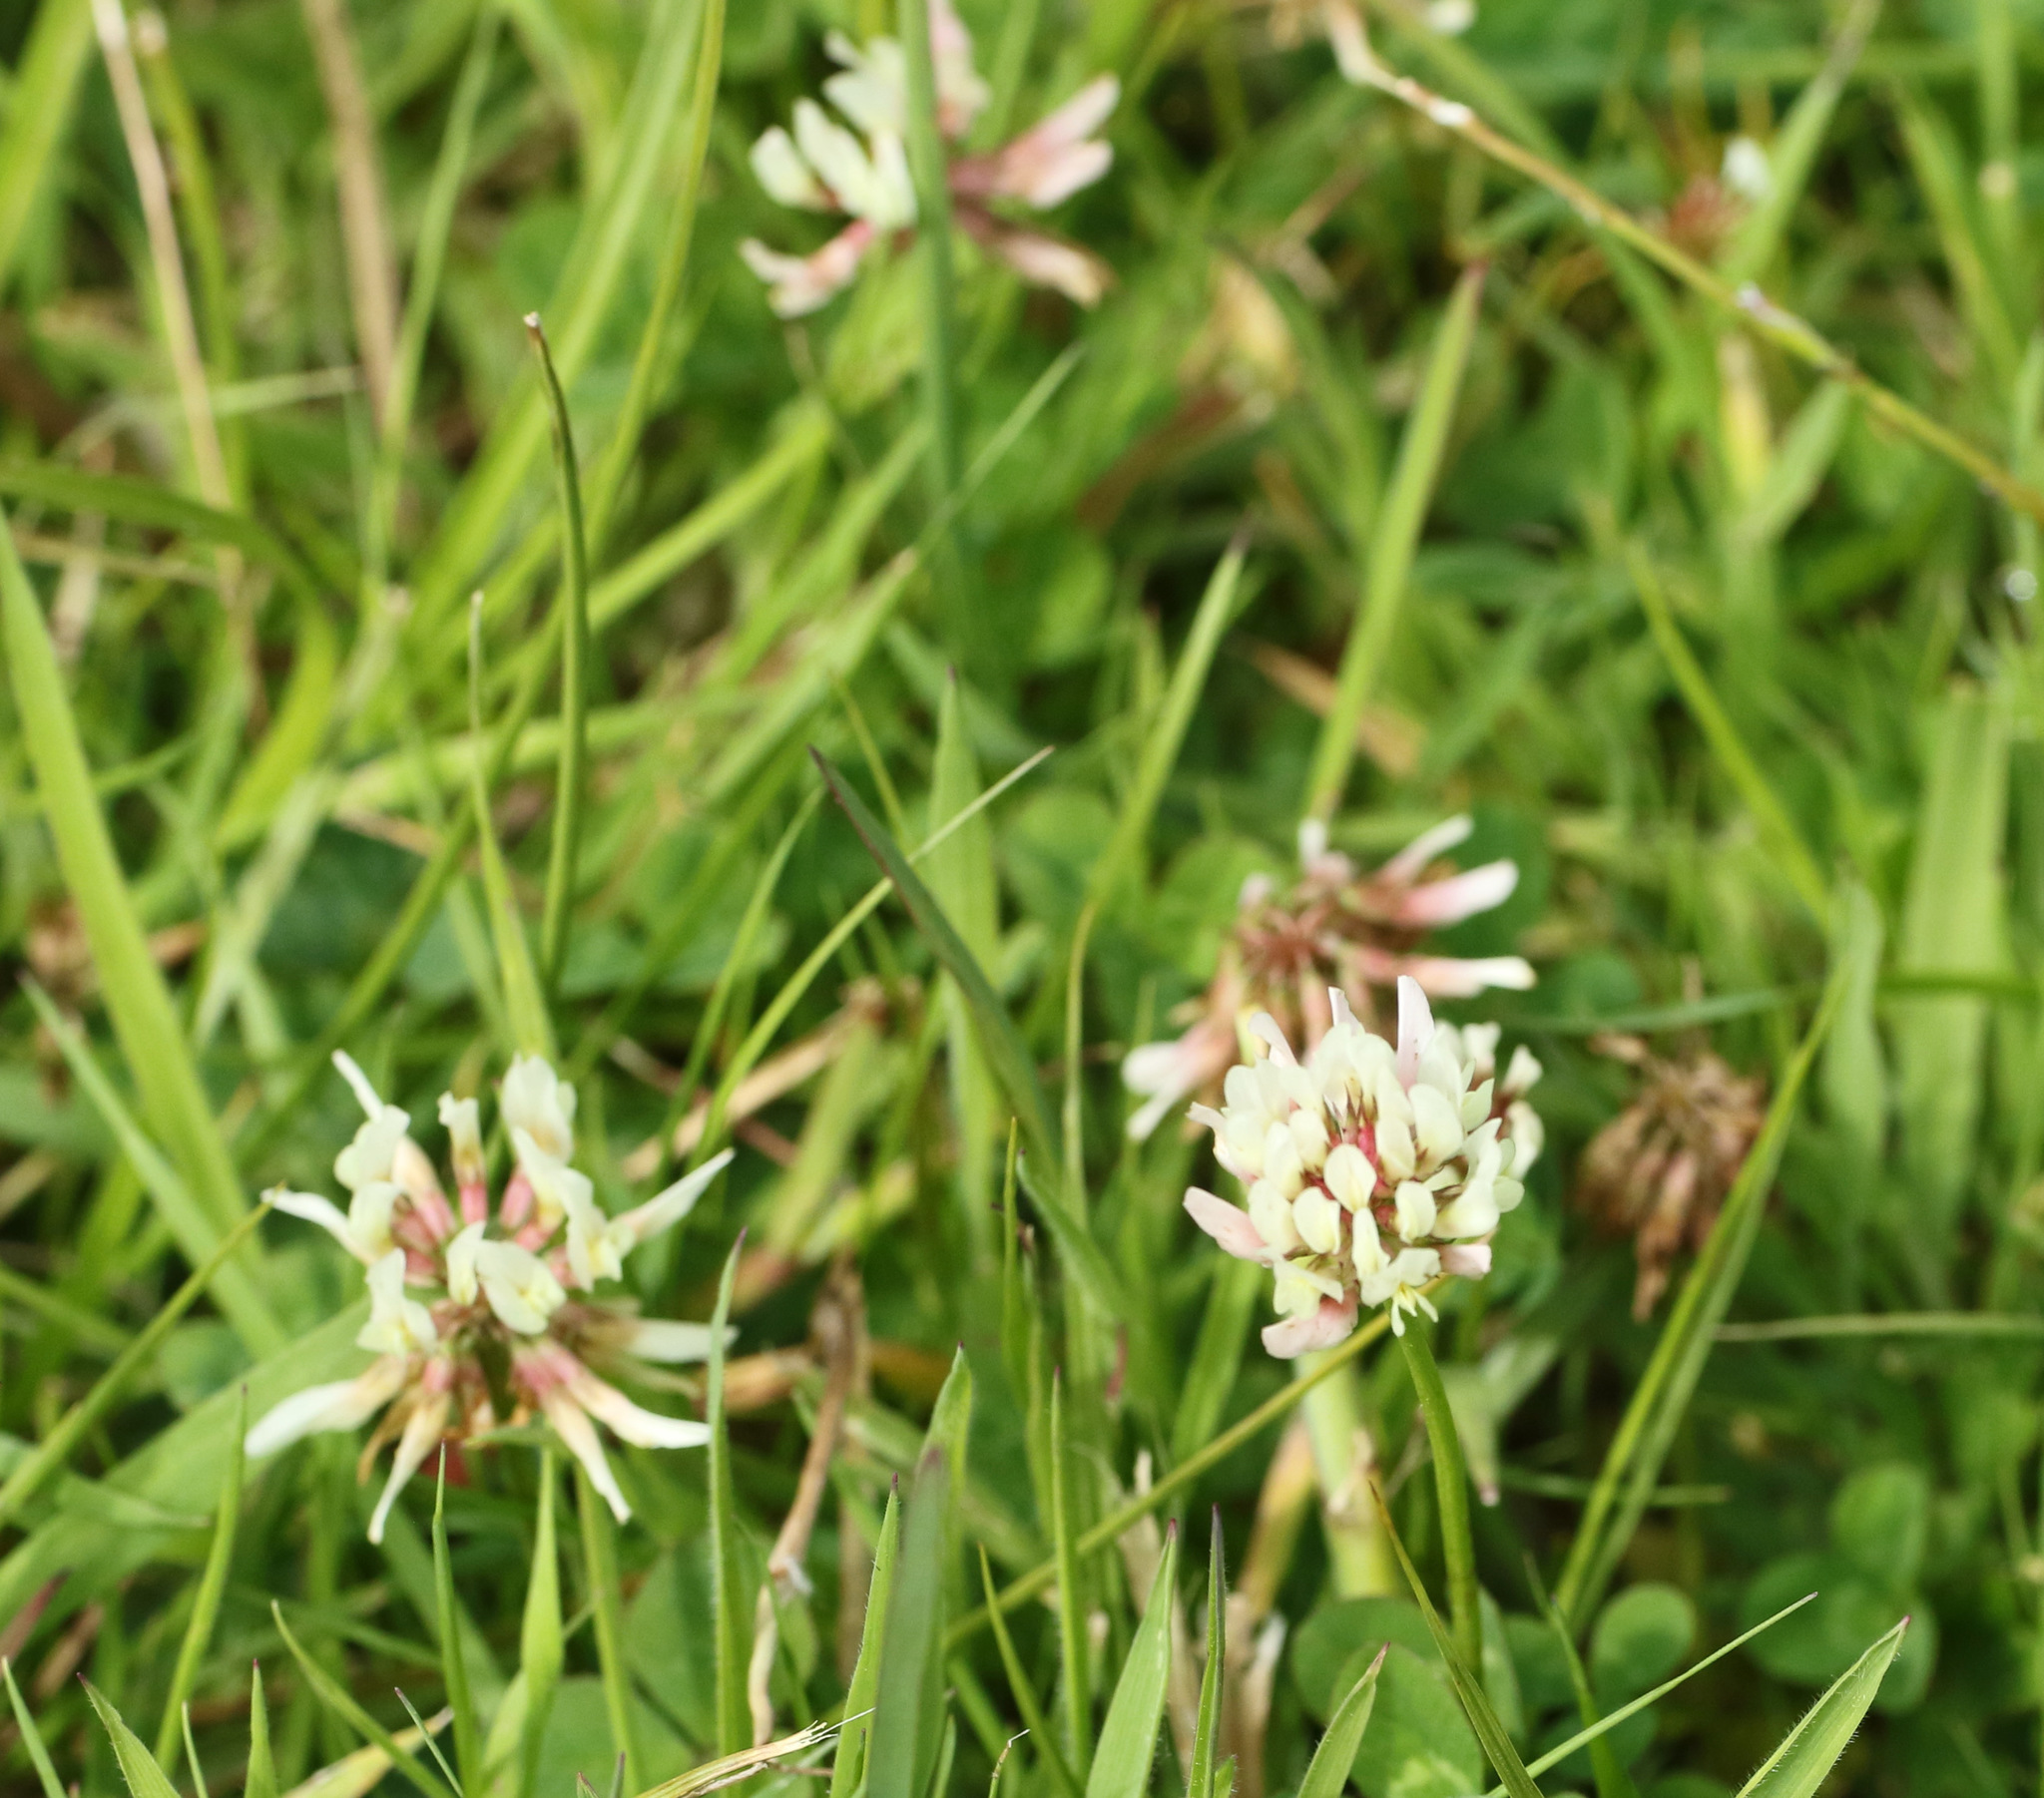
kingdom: Plantae
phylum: Tracheophyta
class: Magnoliopsida
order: Fabales
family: Fabaceae
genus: Trifolium
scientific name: Trifolium repens
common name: White clover
